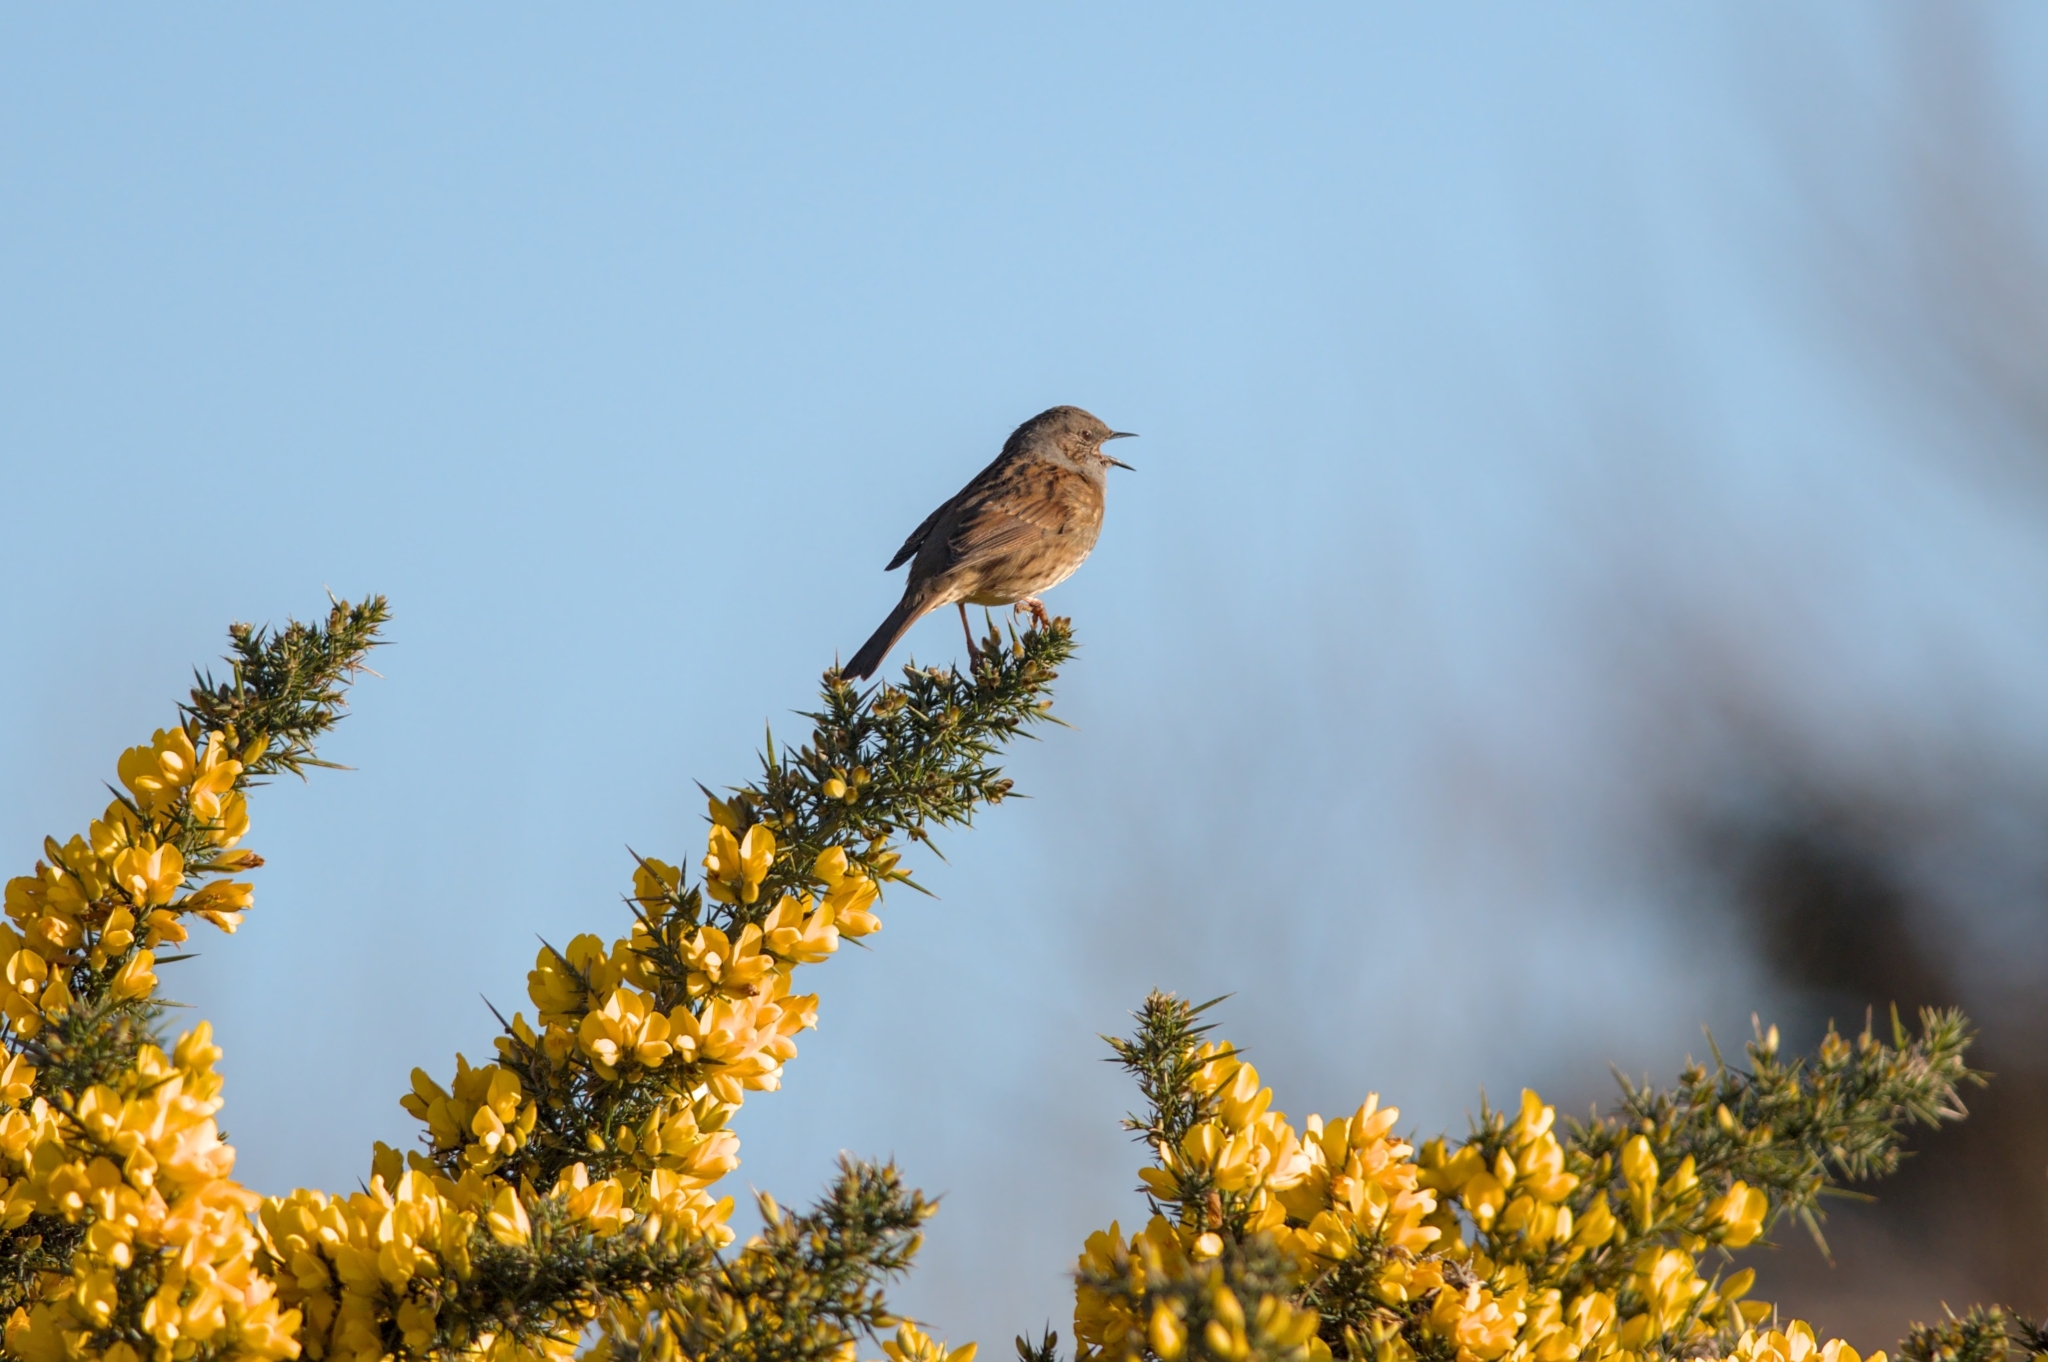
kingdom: Animalia
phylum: Chordata
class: Aves
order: Passeriformes
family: Prunellidae
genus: Prunella
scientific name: Prunella modularis
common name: Dunnock
